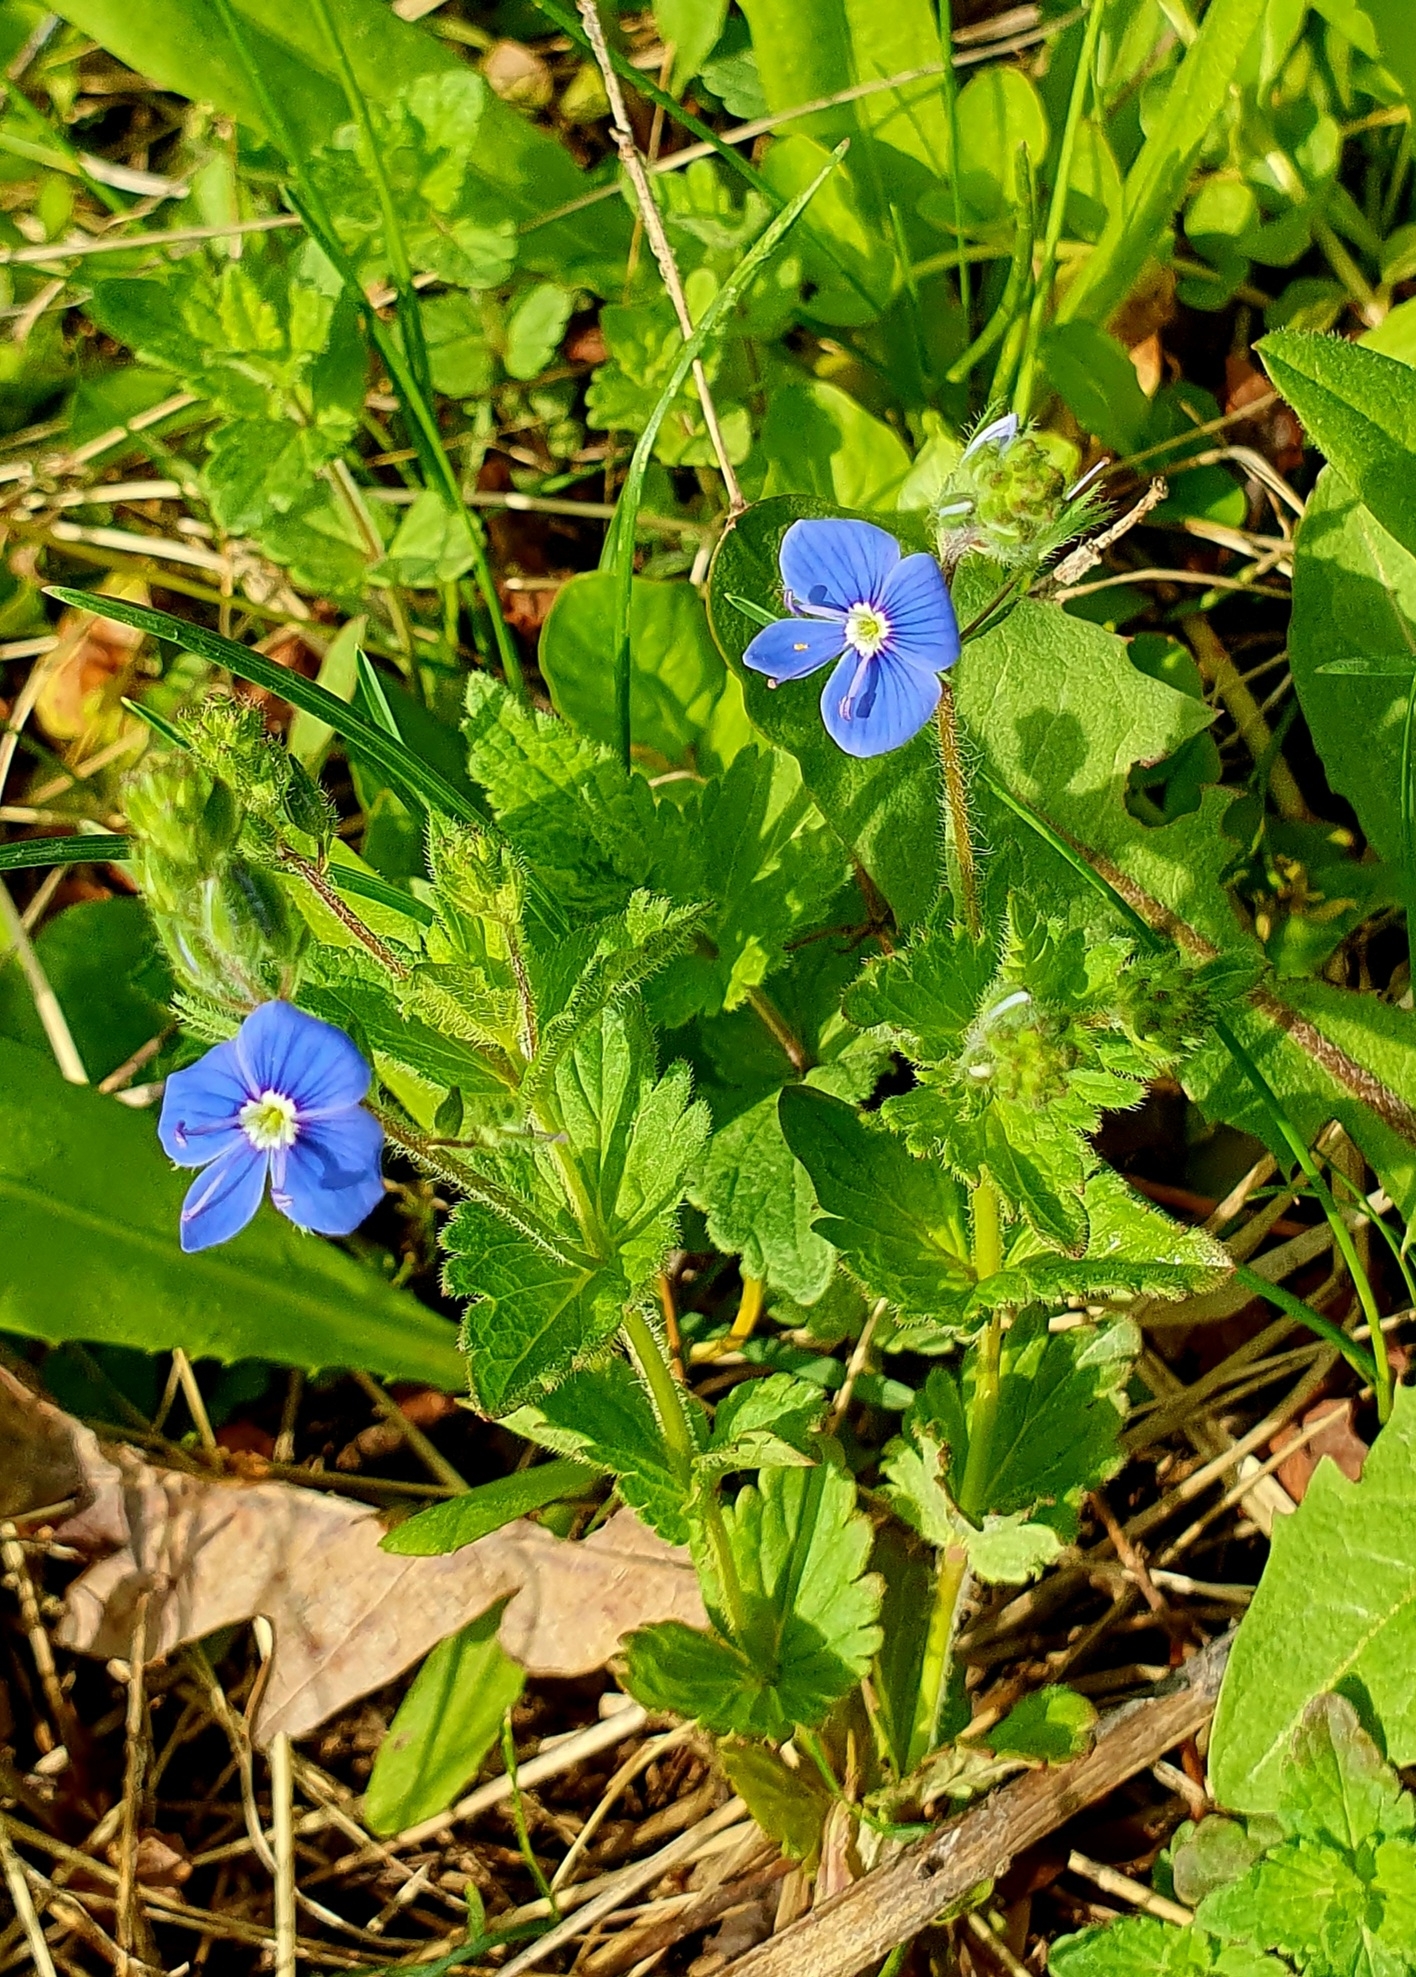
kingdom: Plantae
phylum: Tracheophyta
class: Magnoliopsida
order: Lamiales
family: Plantaginaceae
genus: Veronica
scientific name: Veronica chamaedrys
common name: Germander speedwell
